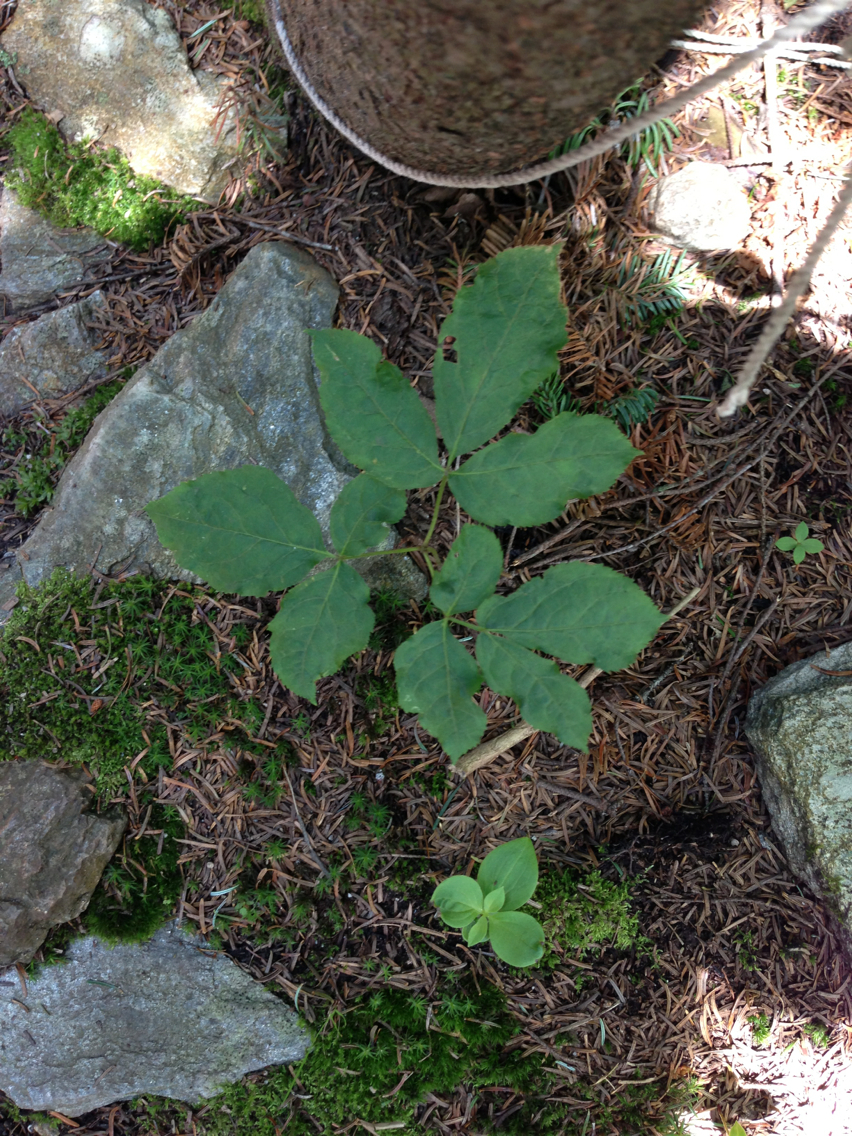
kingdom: Plantae
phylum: Tracheophyta
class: Magnoliopsida
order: Apiales
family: Araliaceae
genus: Aralia
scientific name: Aralia nudicaulis
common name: Wild sarsaparilla
